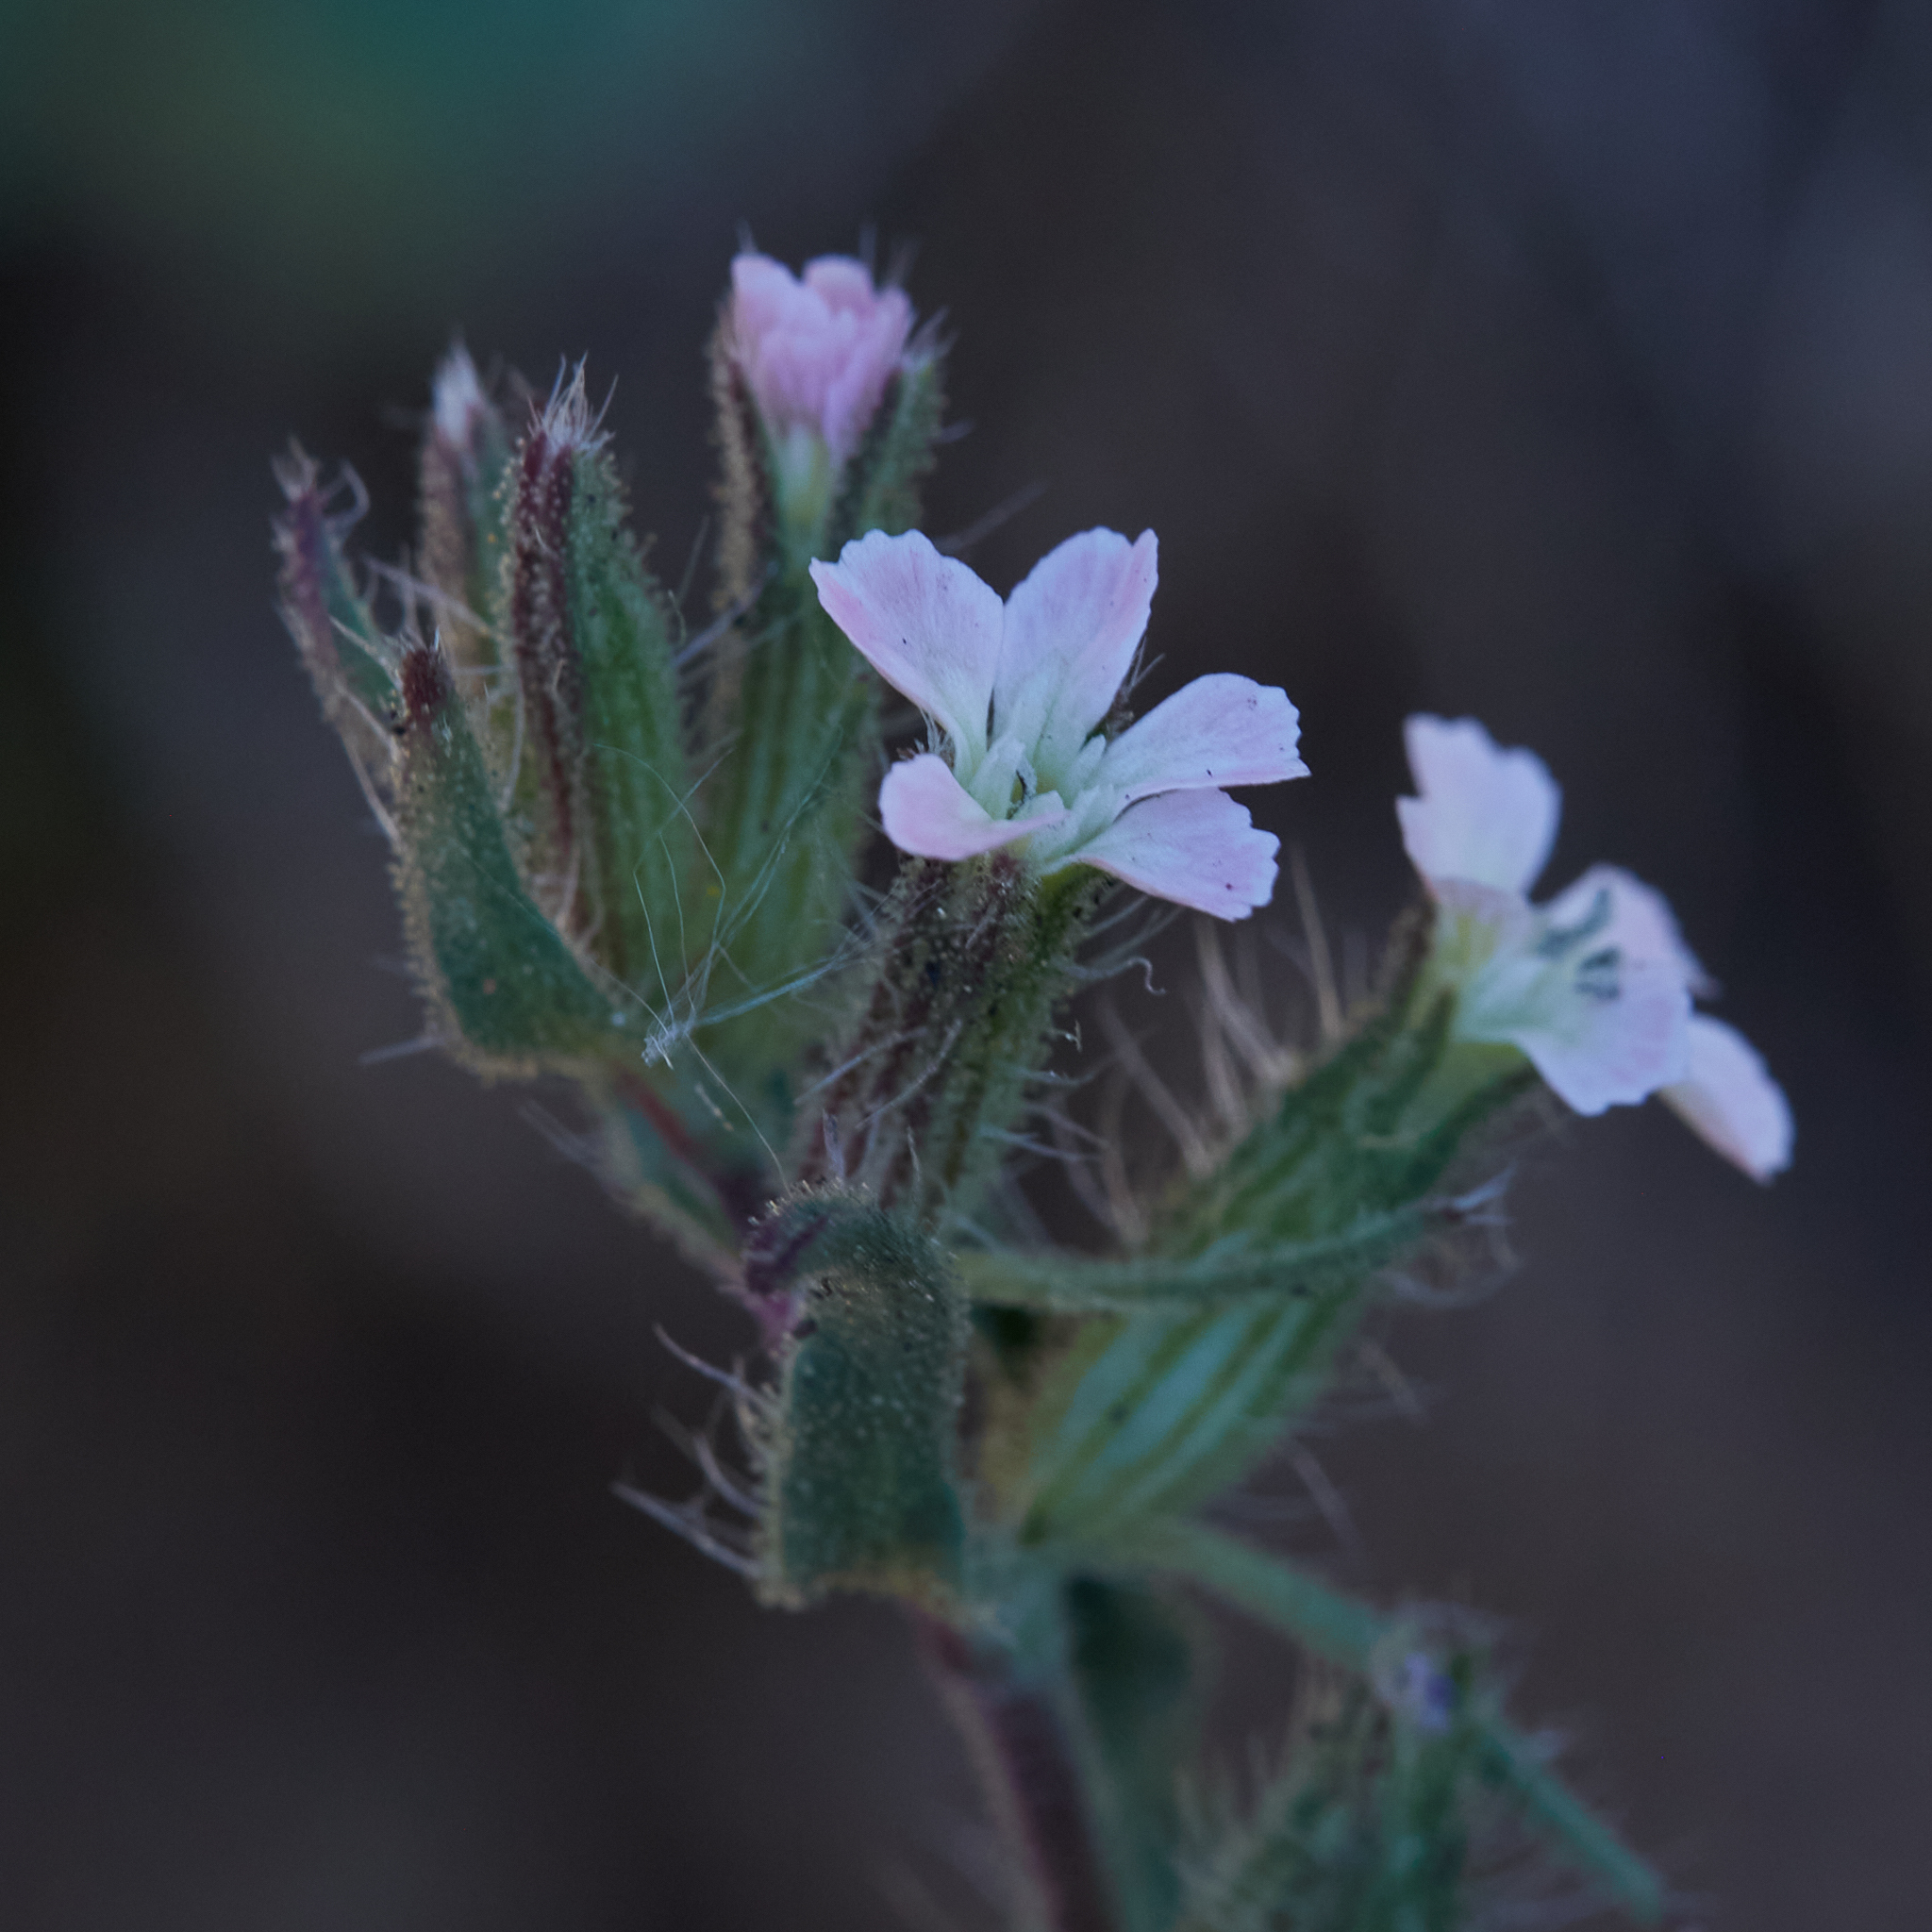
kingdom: Plantae
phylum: Tracheophyta
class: Magnoliopsida
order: Caryophyllales
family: Caryophyllaceae
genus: Silene
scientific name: Silene gallica
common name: Small-flowered catchfly
